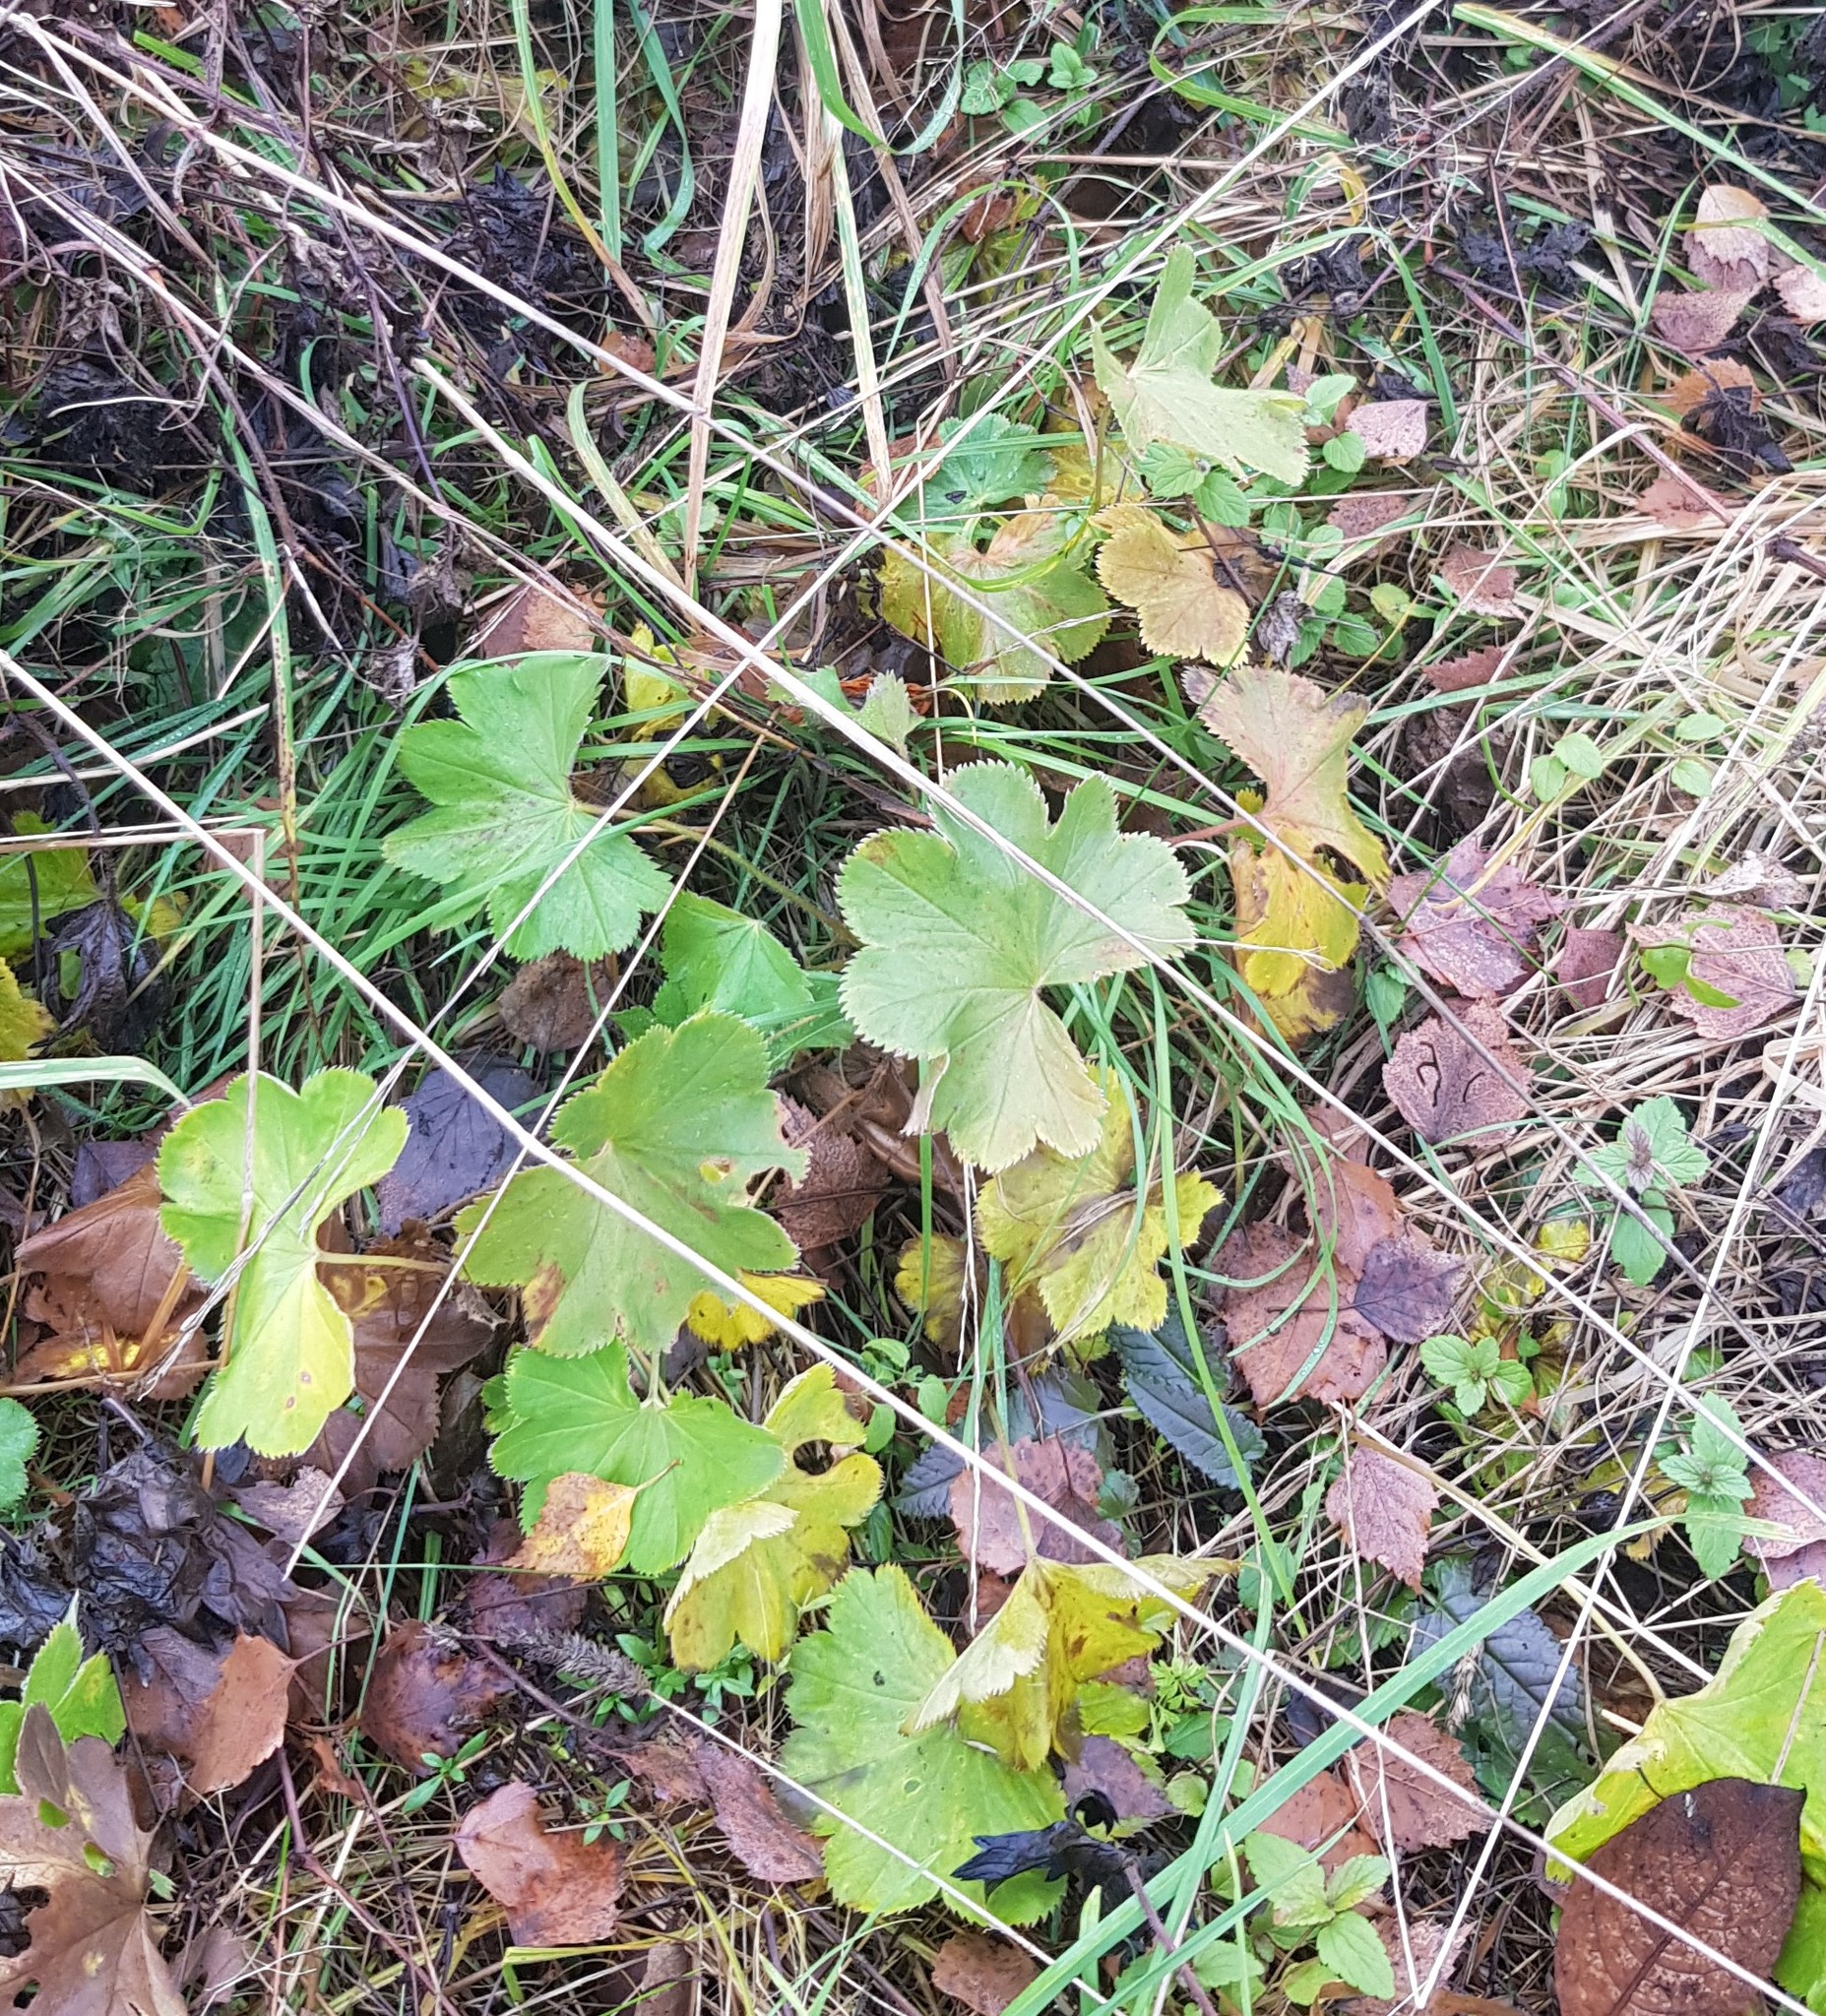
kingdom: Plantae
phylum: Tracheophyta
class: Magnoliopsida
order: Rosales
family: Rosaceae
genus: Alchemilla
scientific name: Alchemilla
